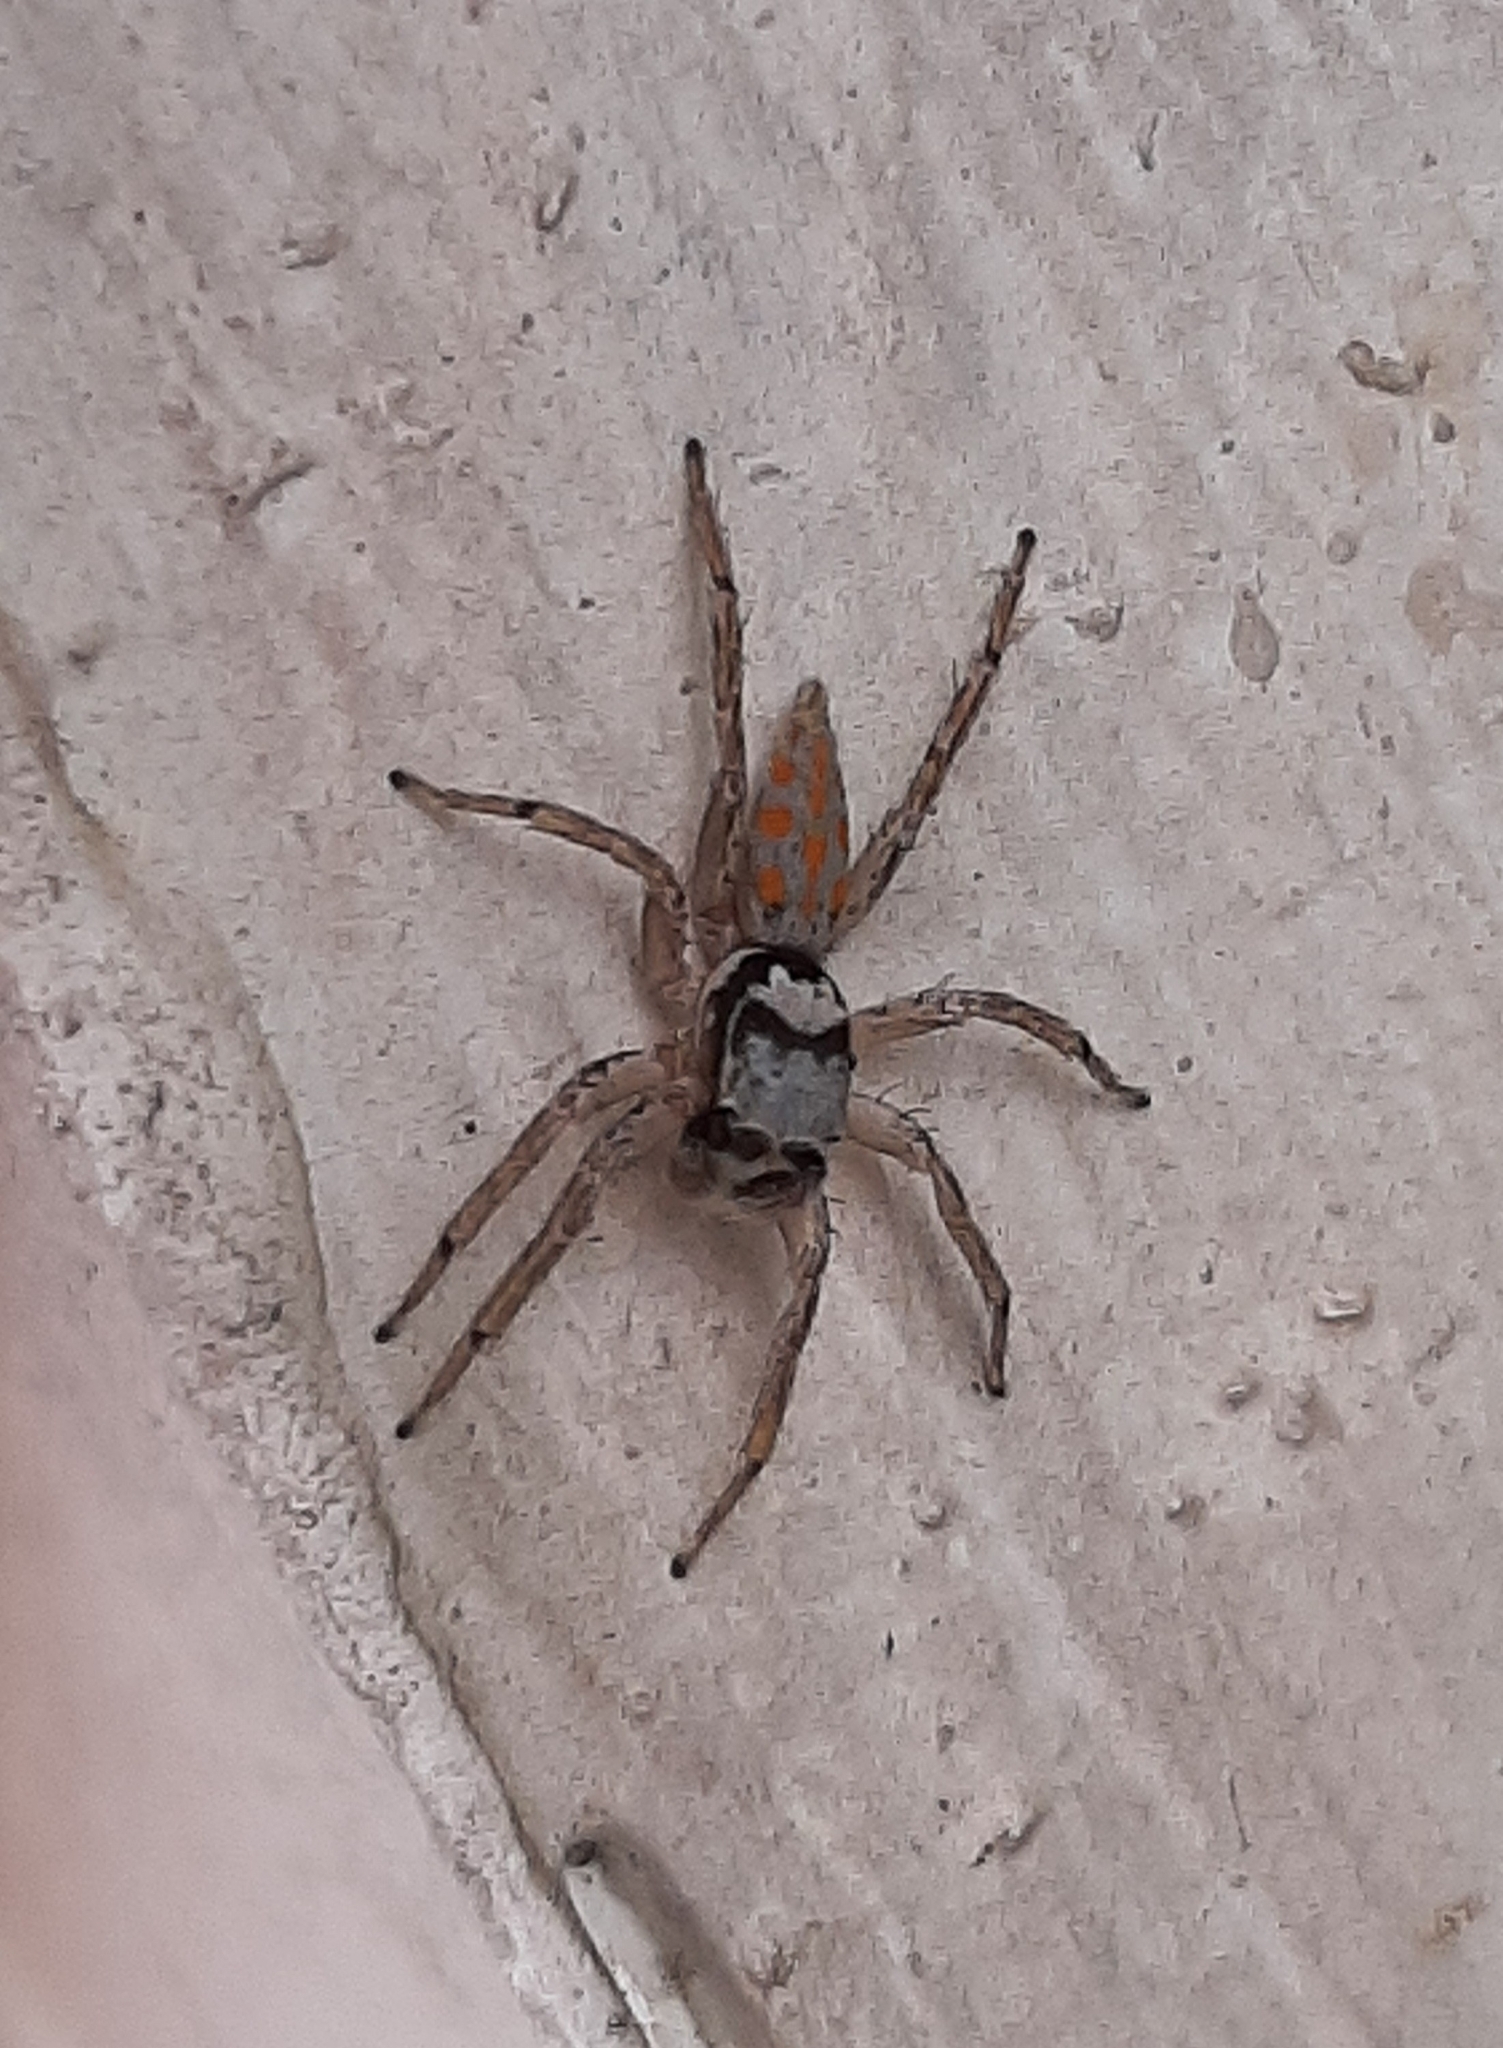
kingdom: Animalia
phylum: Arthropoda
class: Arachnida
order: Araneae
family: Salticidae
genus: Paramaevia
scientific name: Paramaevia poultoni
